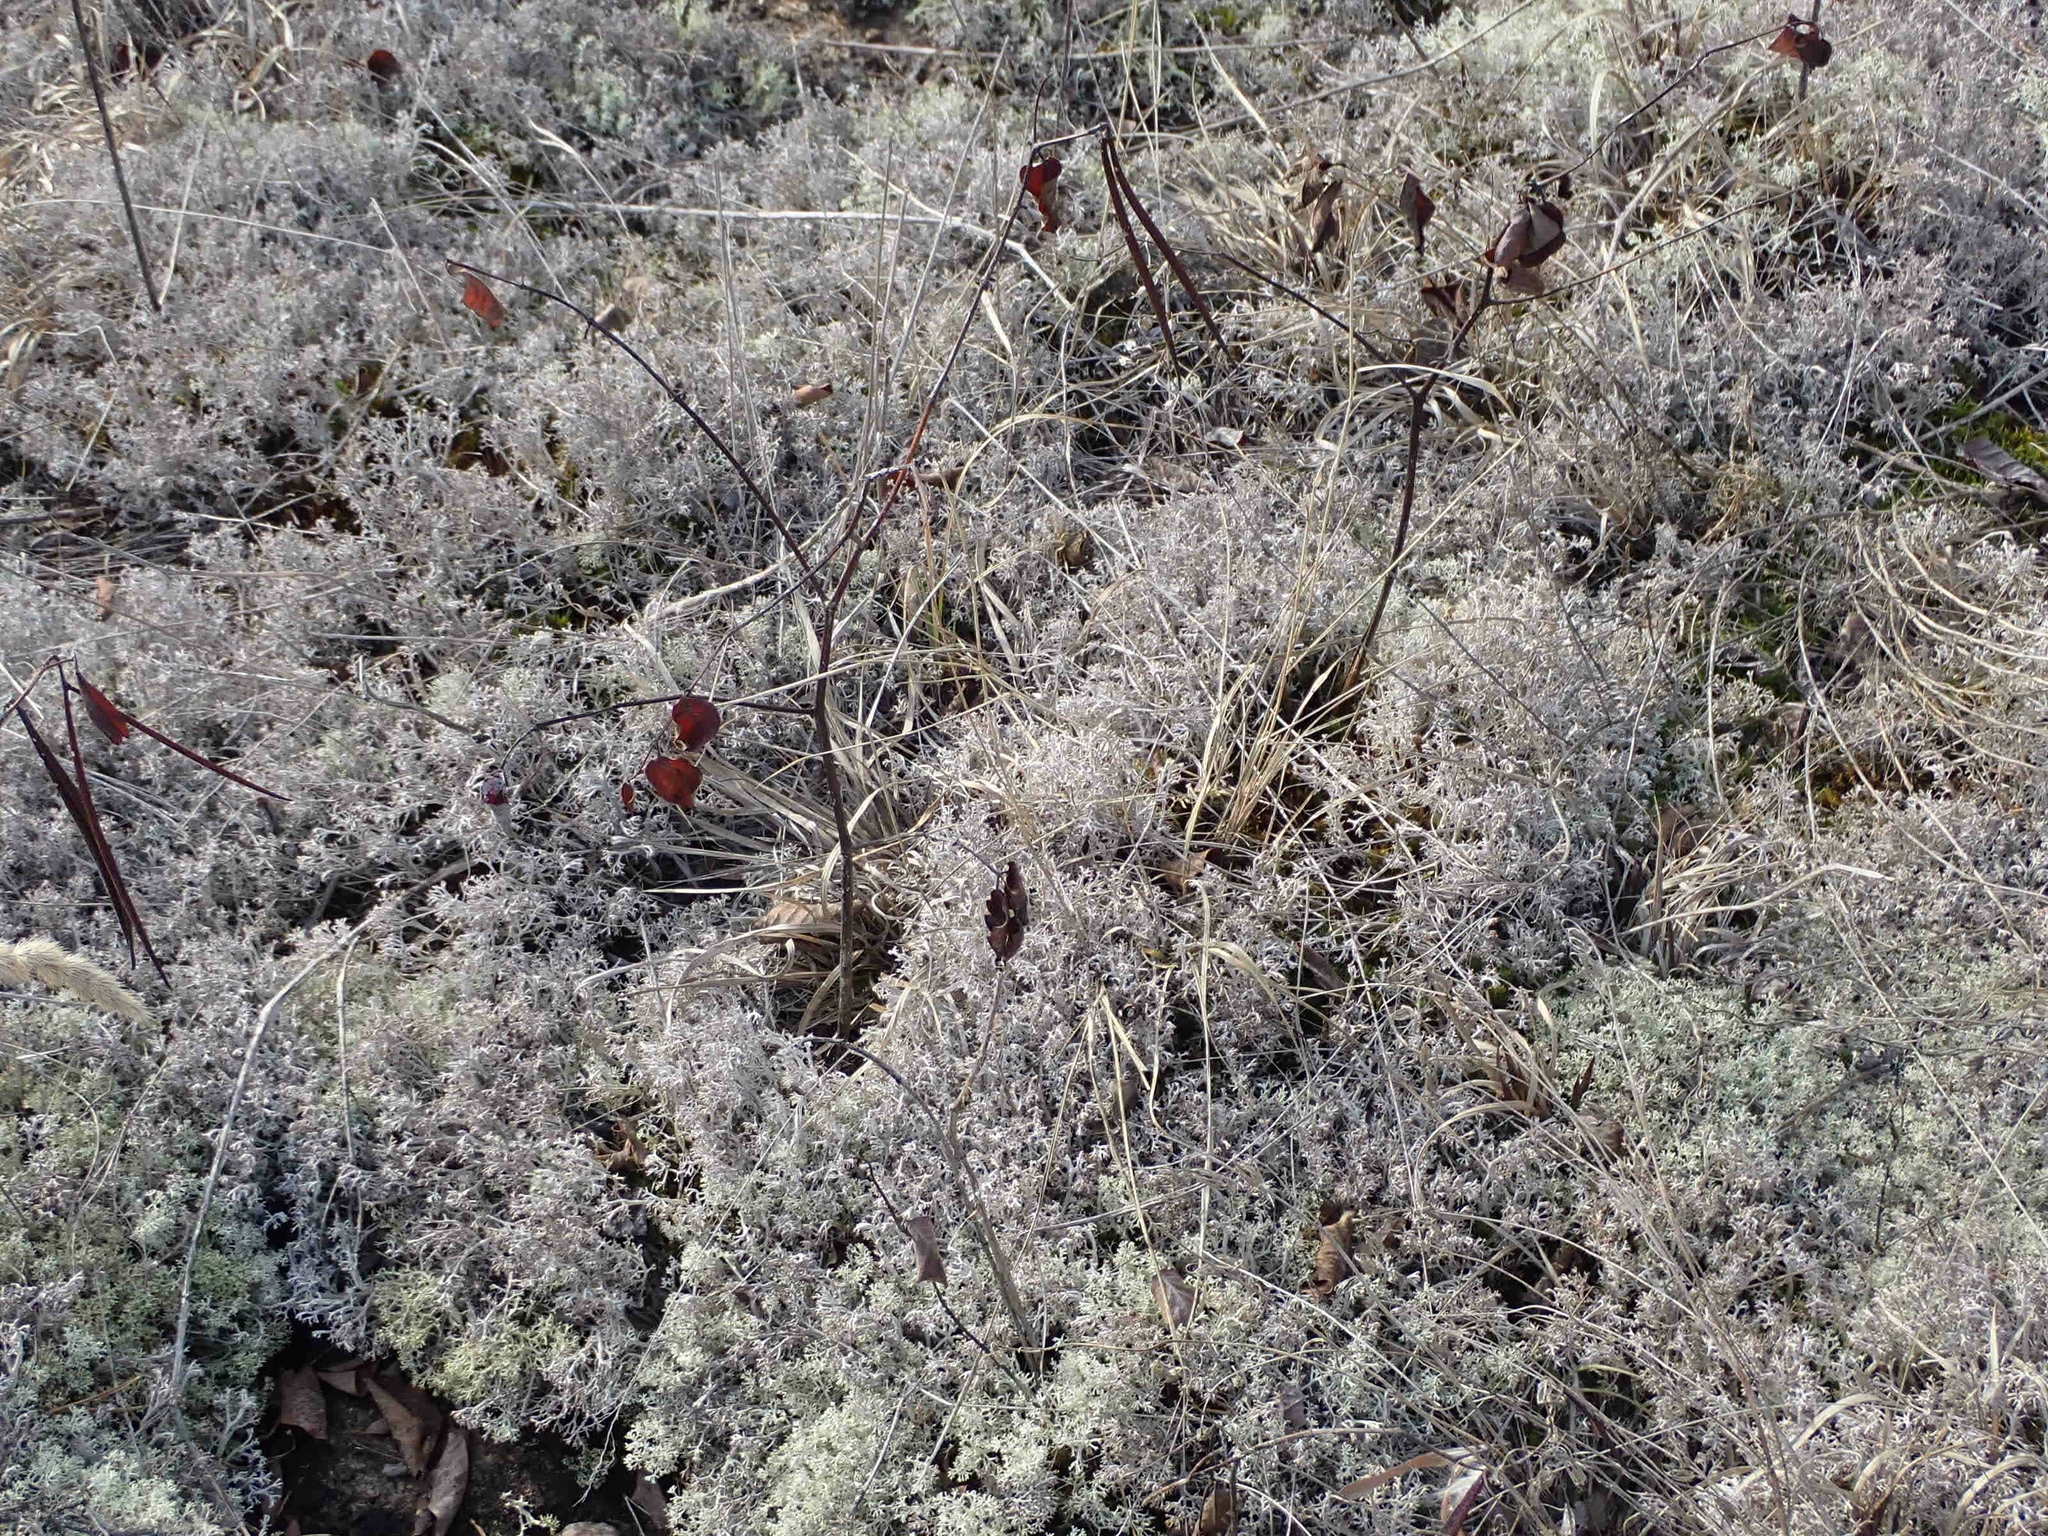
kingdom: Plantae
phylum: Tracheophyta
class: Magnoliopsida
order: Gentianales
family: Apocynaceae
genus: Apocynum
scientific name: Apocynum androsaemifolium
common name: Spreading dogbane
